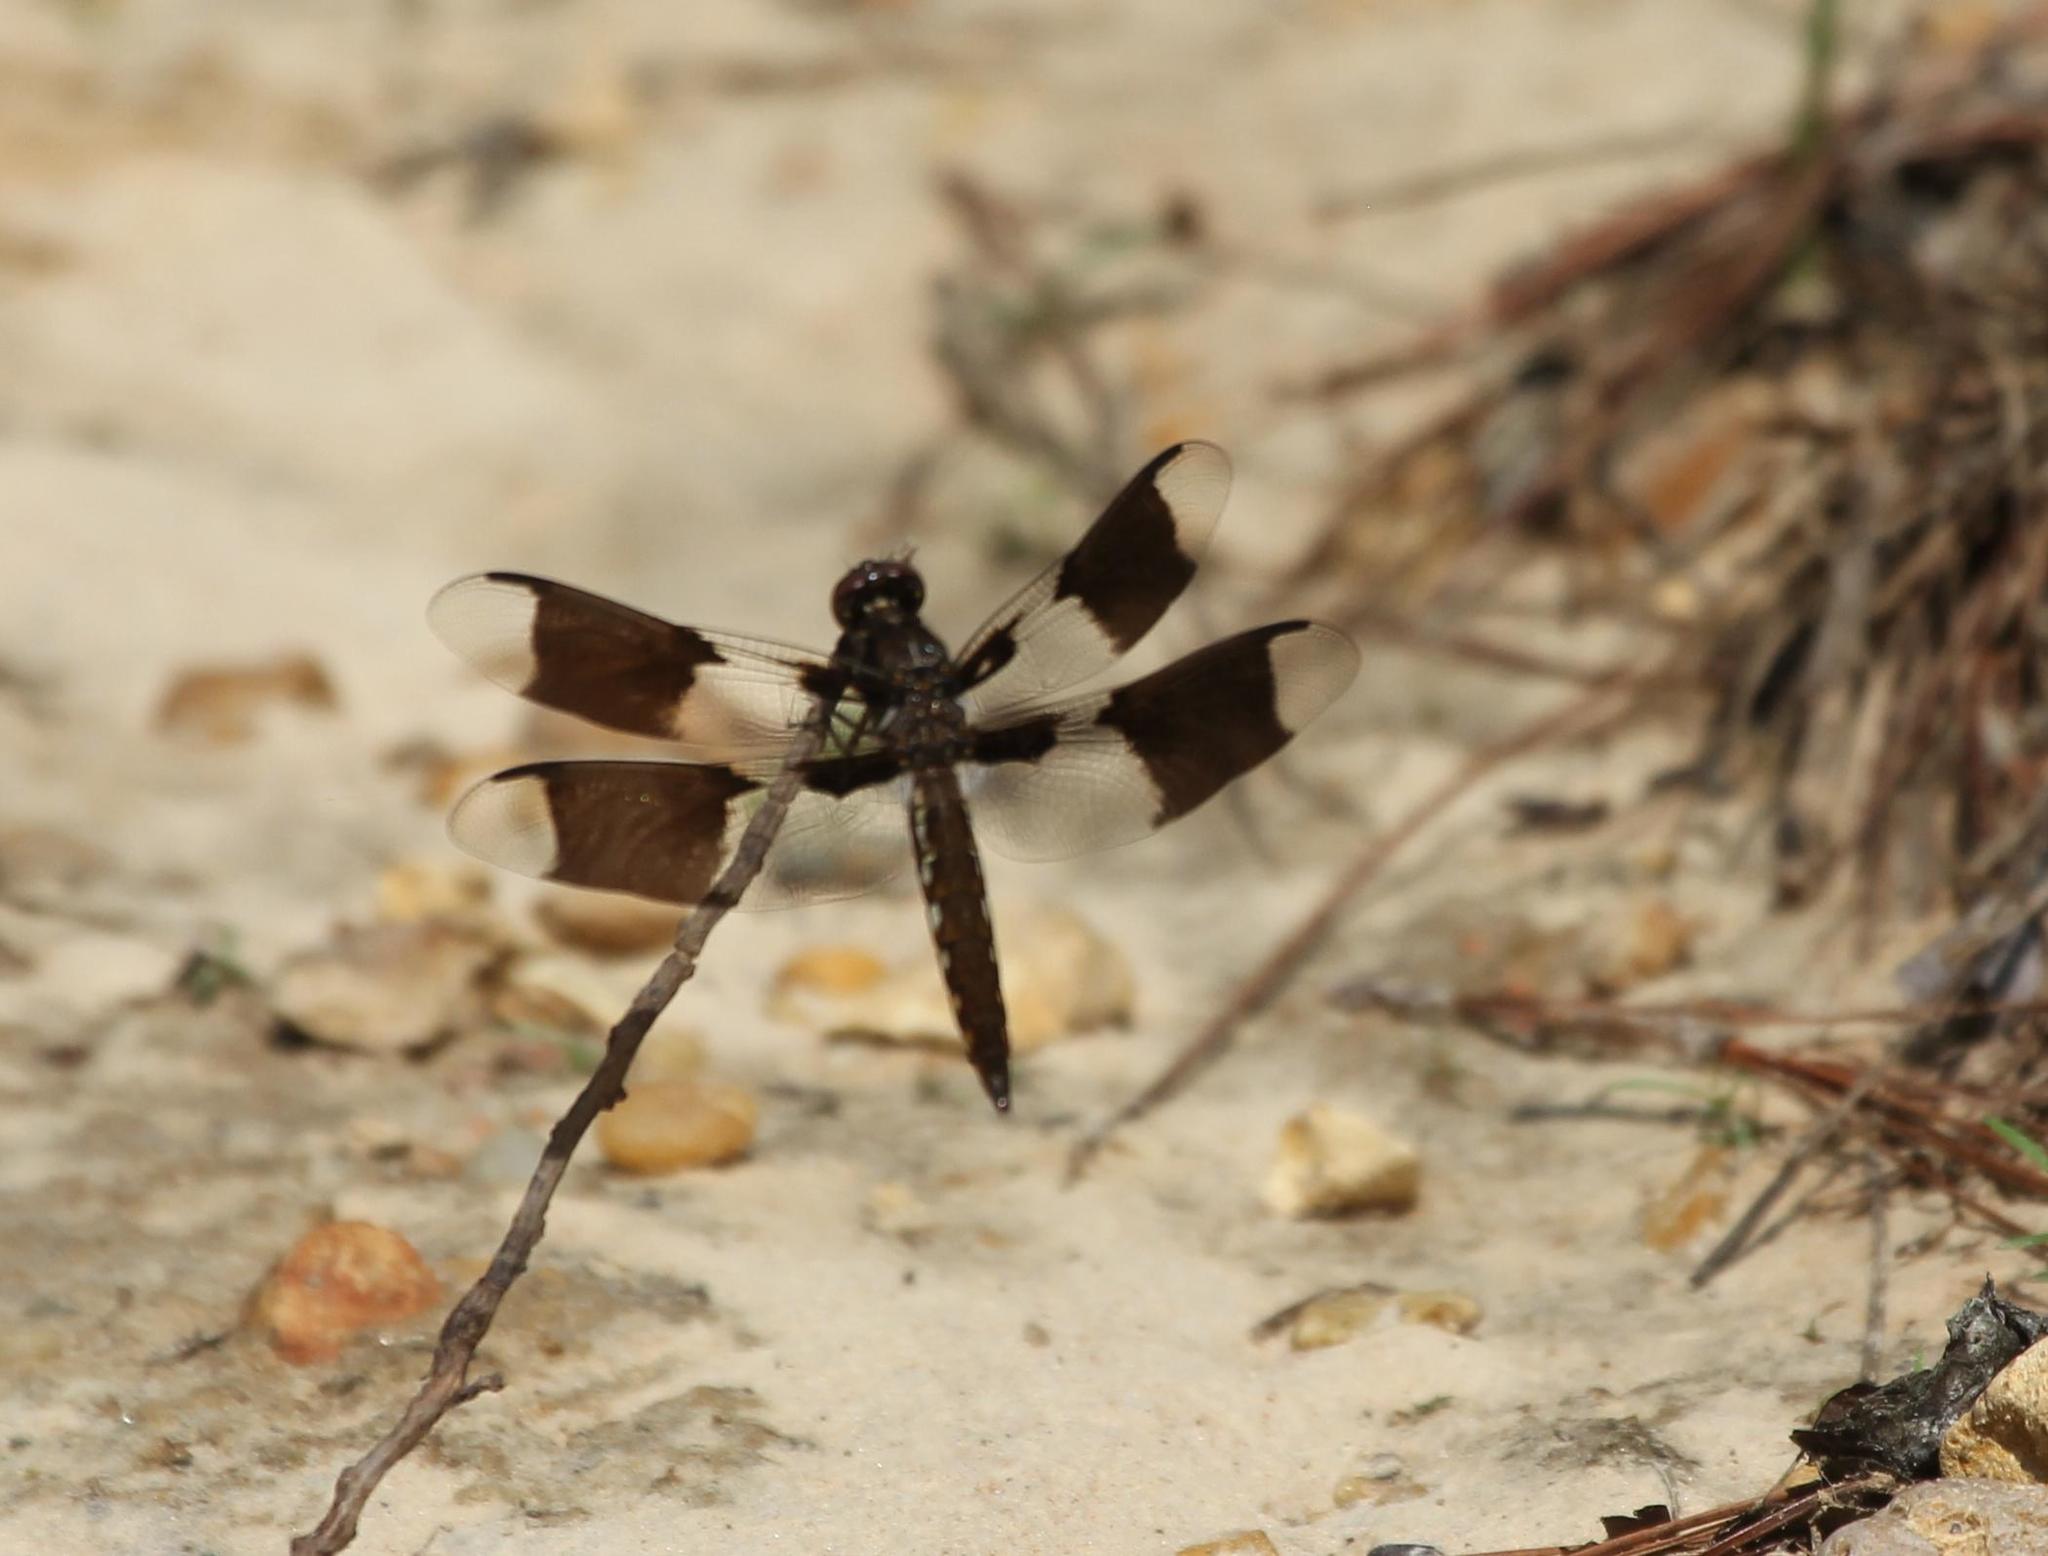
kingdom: Animalia
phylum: Arthropoda
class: Insecta
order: Odonata
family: Libellulidae
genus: Plathemis
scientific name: Plathemis lydia
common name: Common whitetail
